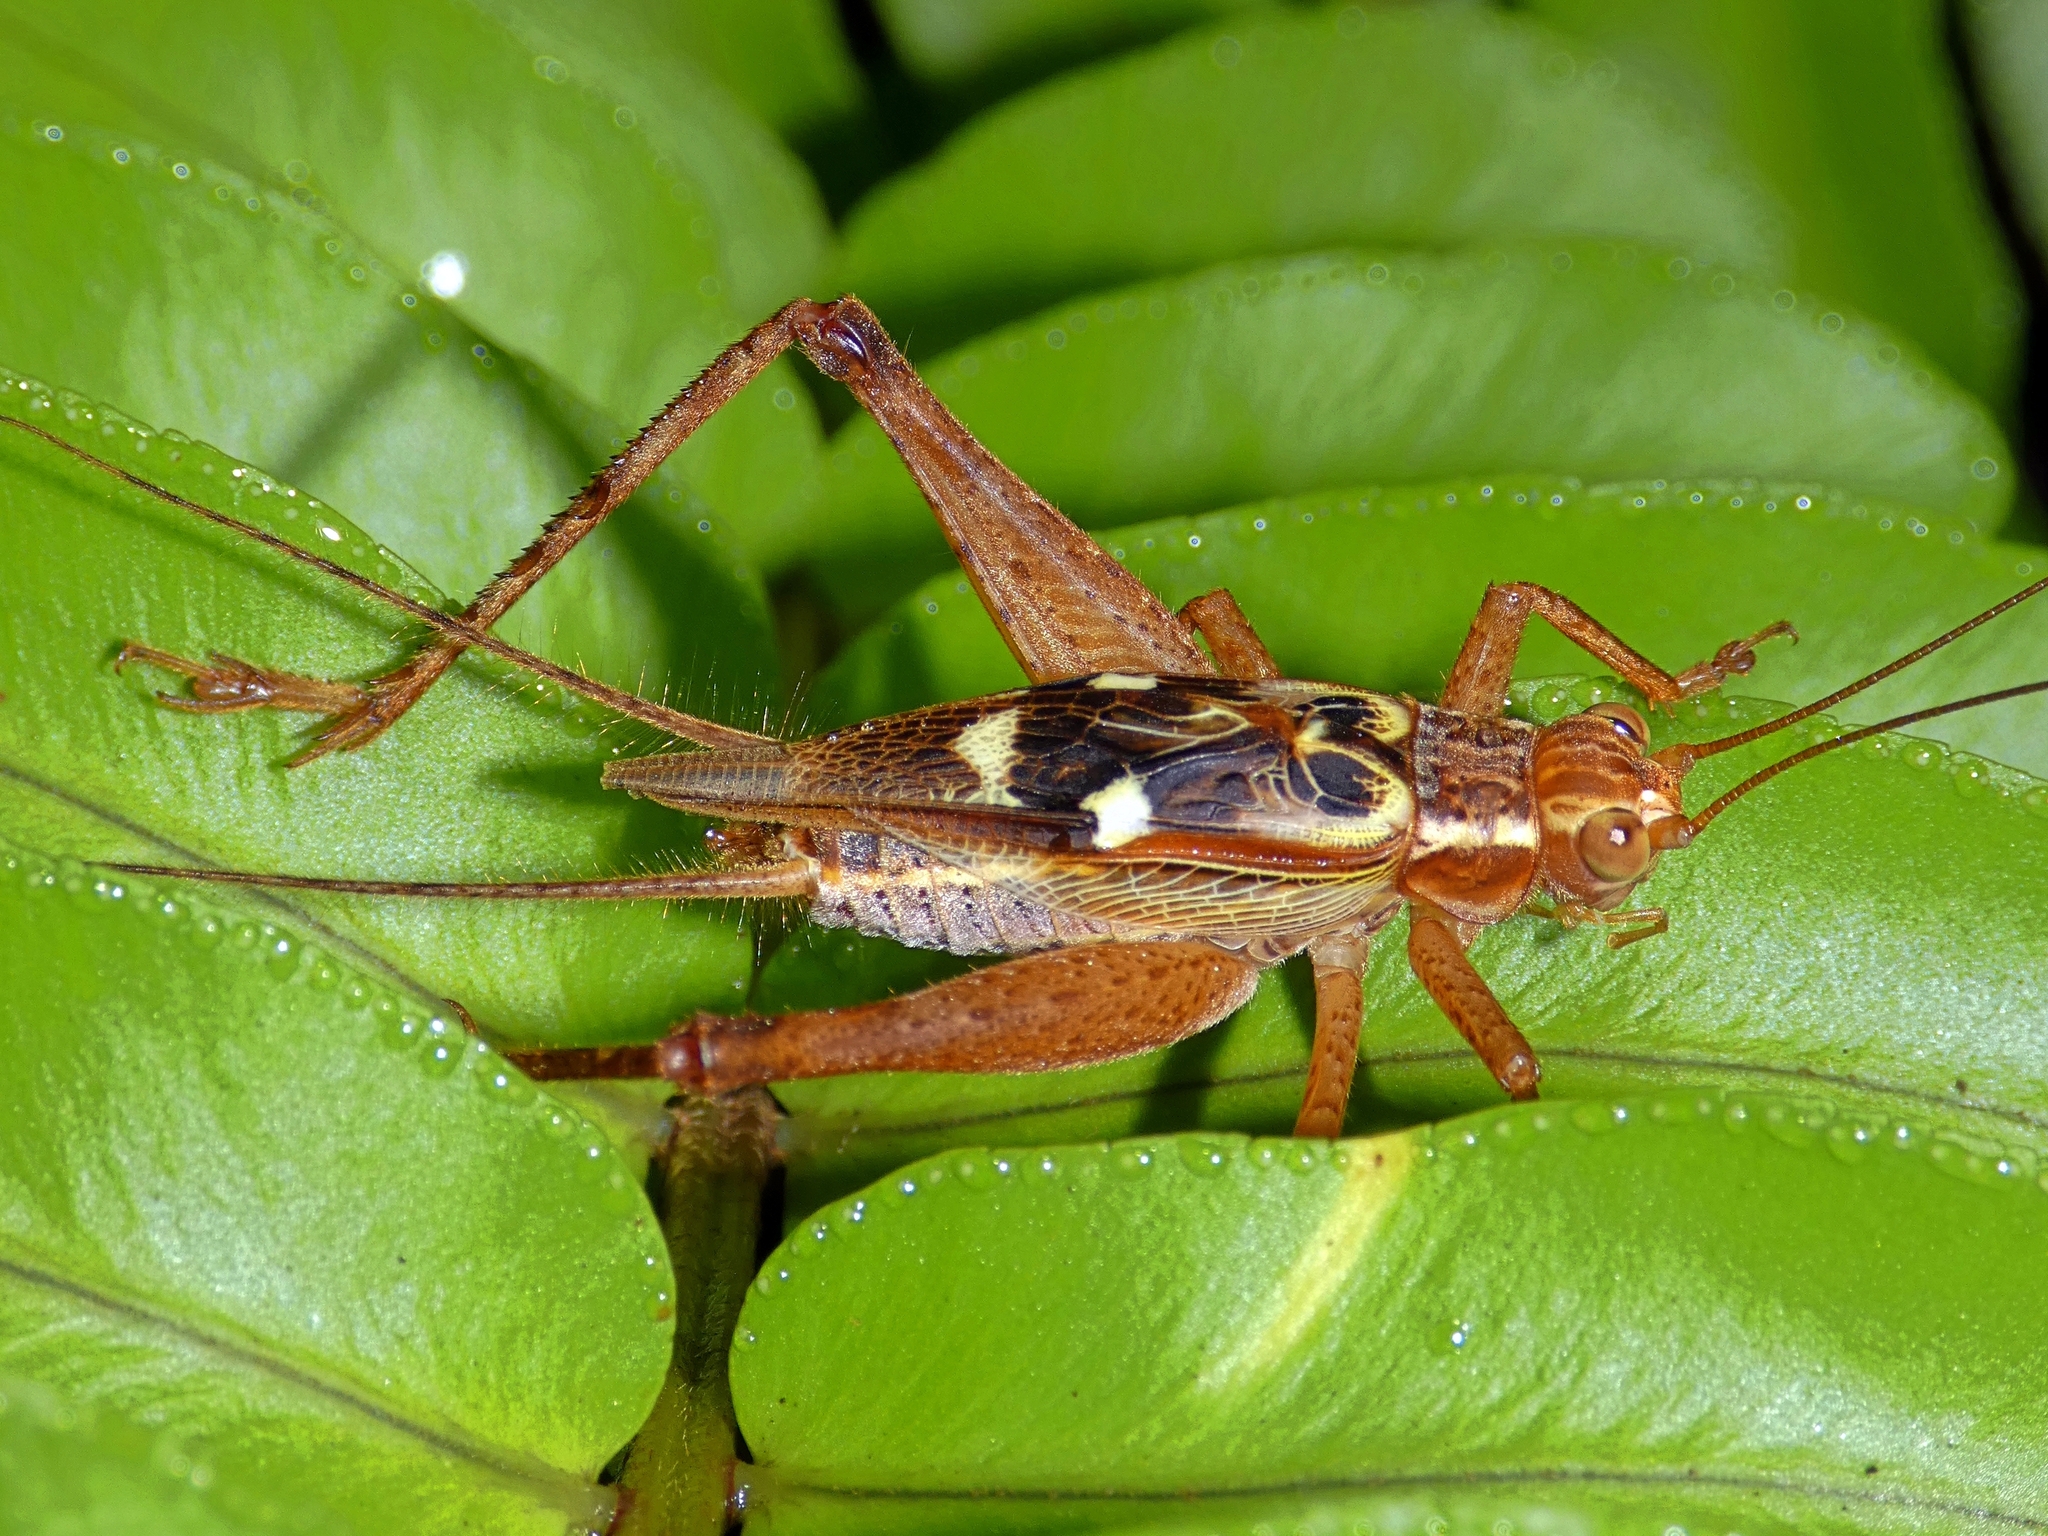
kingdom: Animalia
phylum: Arthropoda
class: Insecta
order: Orthoptera
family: Gryllidae
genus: Cardiodactylus
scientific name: Cardiodactylus novaeguineae
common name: Sad cricket
